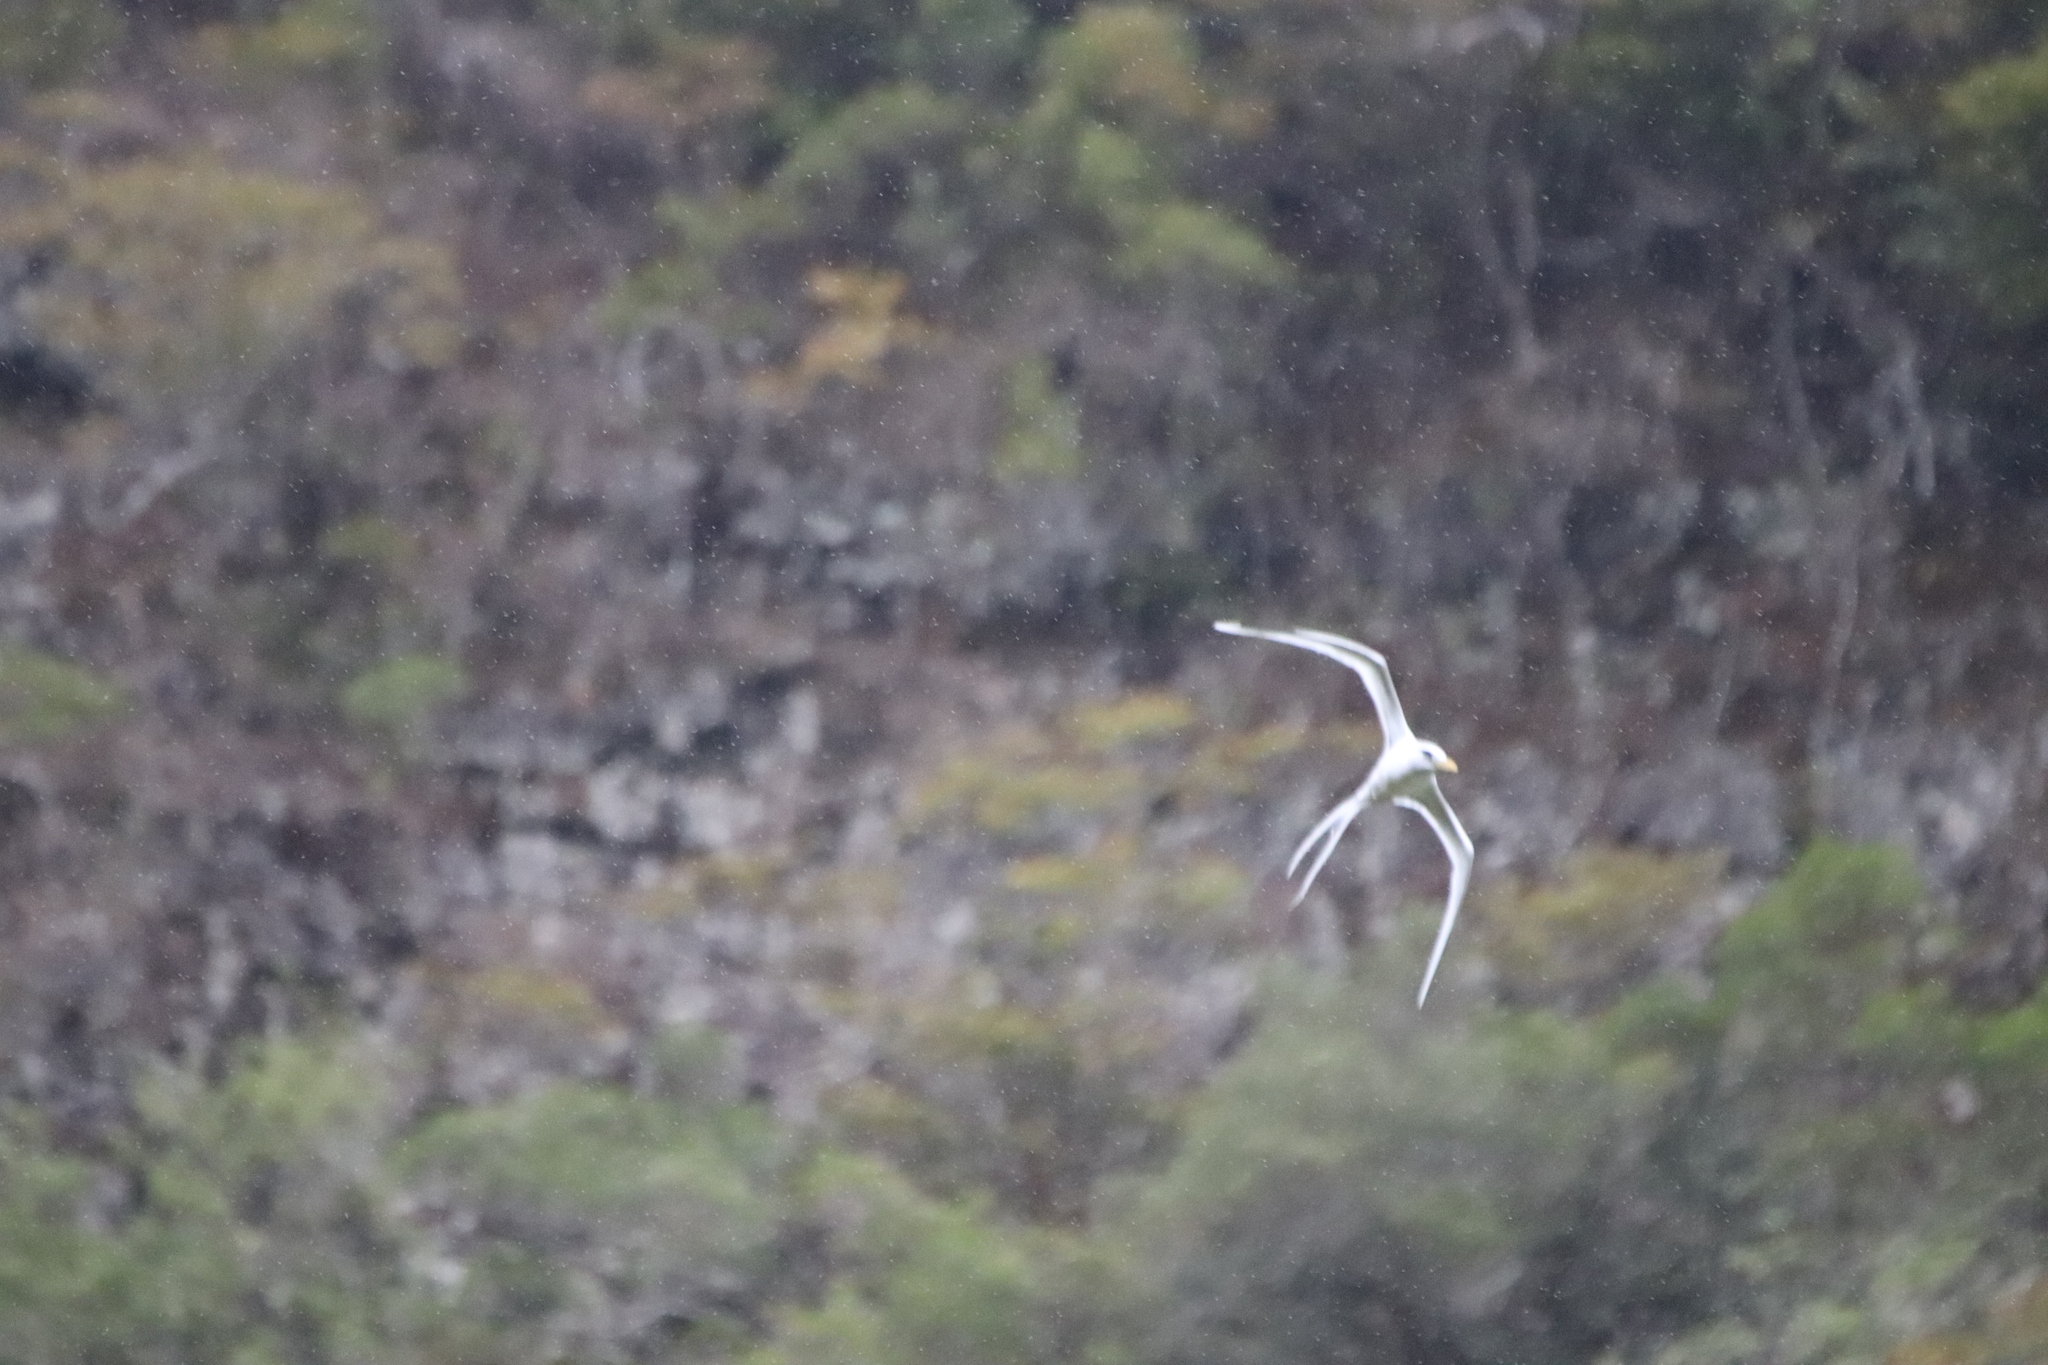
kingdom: Animalia
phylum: Chordata
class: Aves
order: Phaethontiformes
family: Phaethontidae
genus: Phaethon
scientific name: Phaethon lepturus
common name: White-tailed tropicbird
